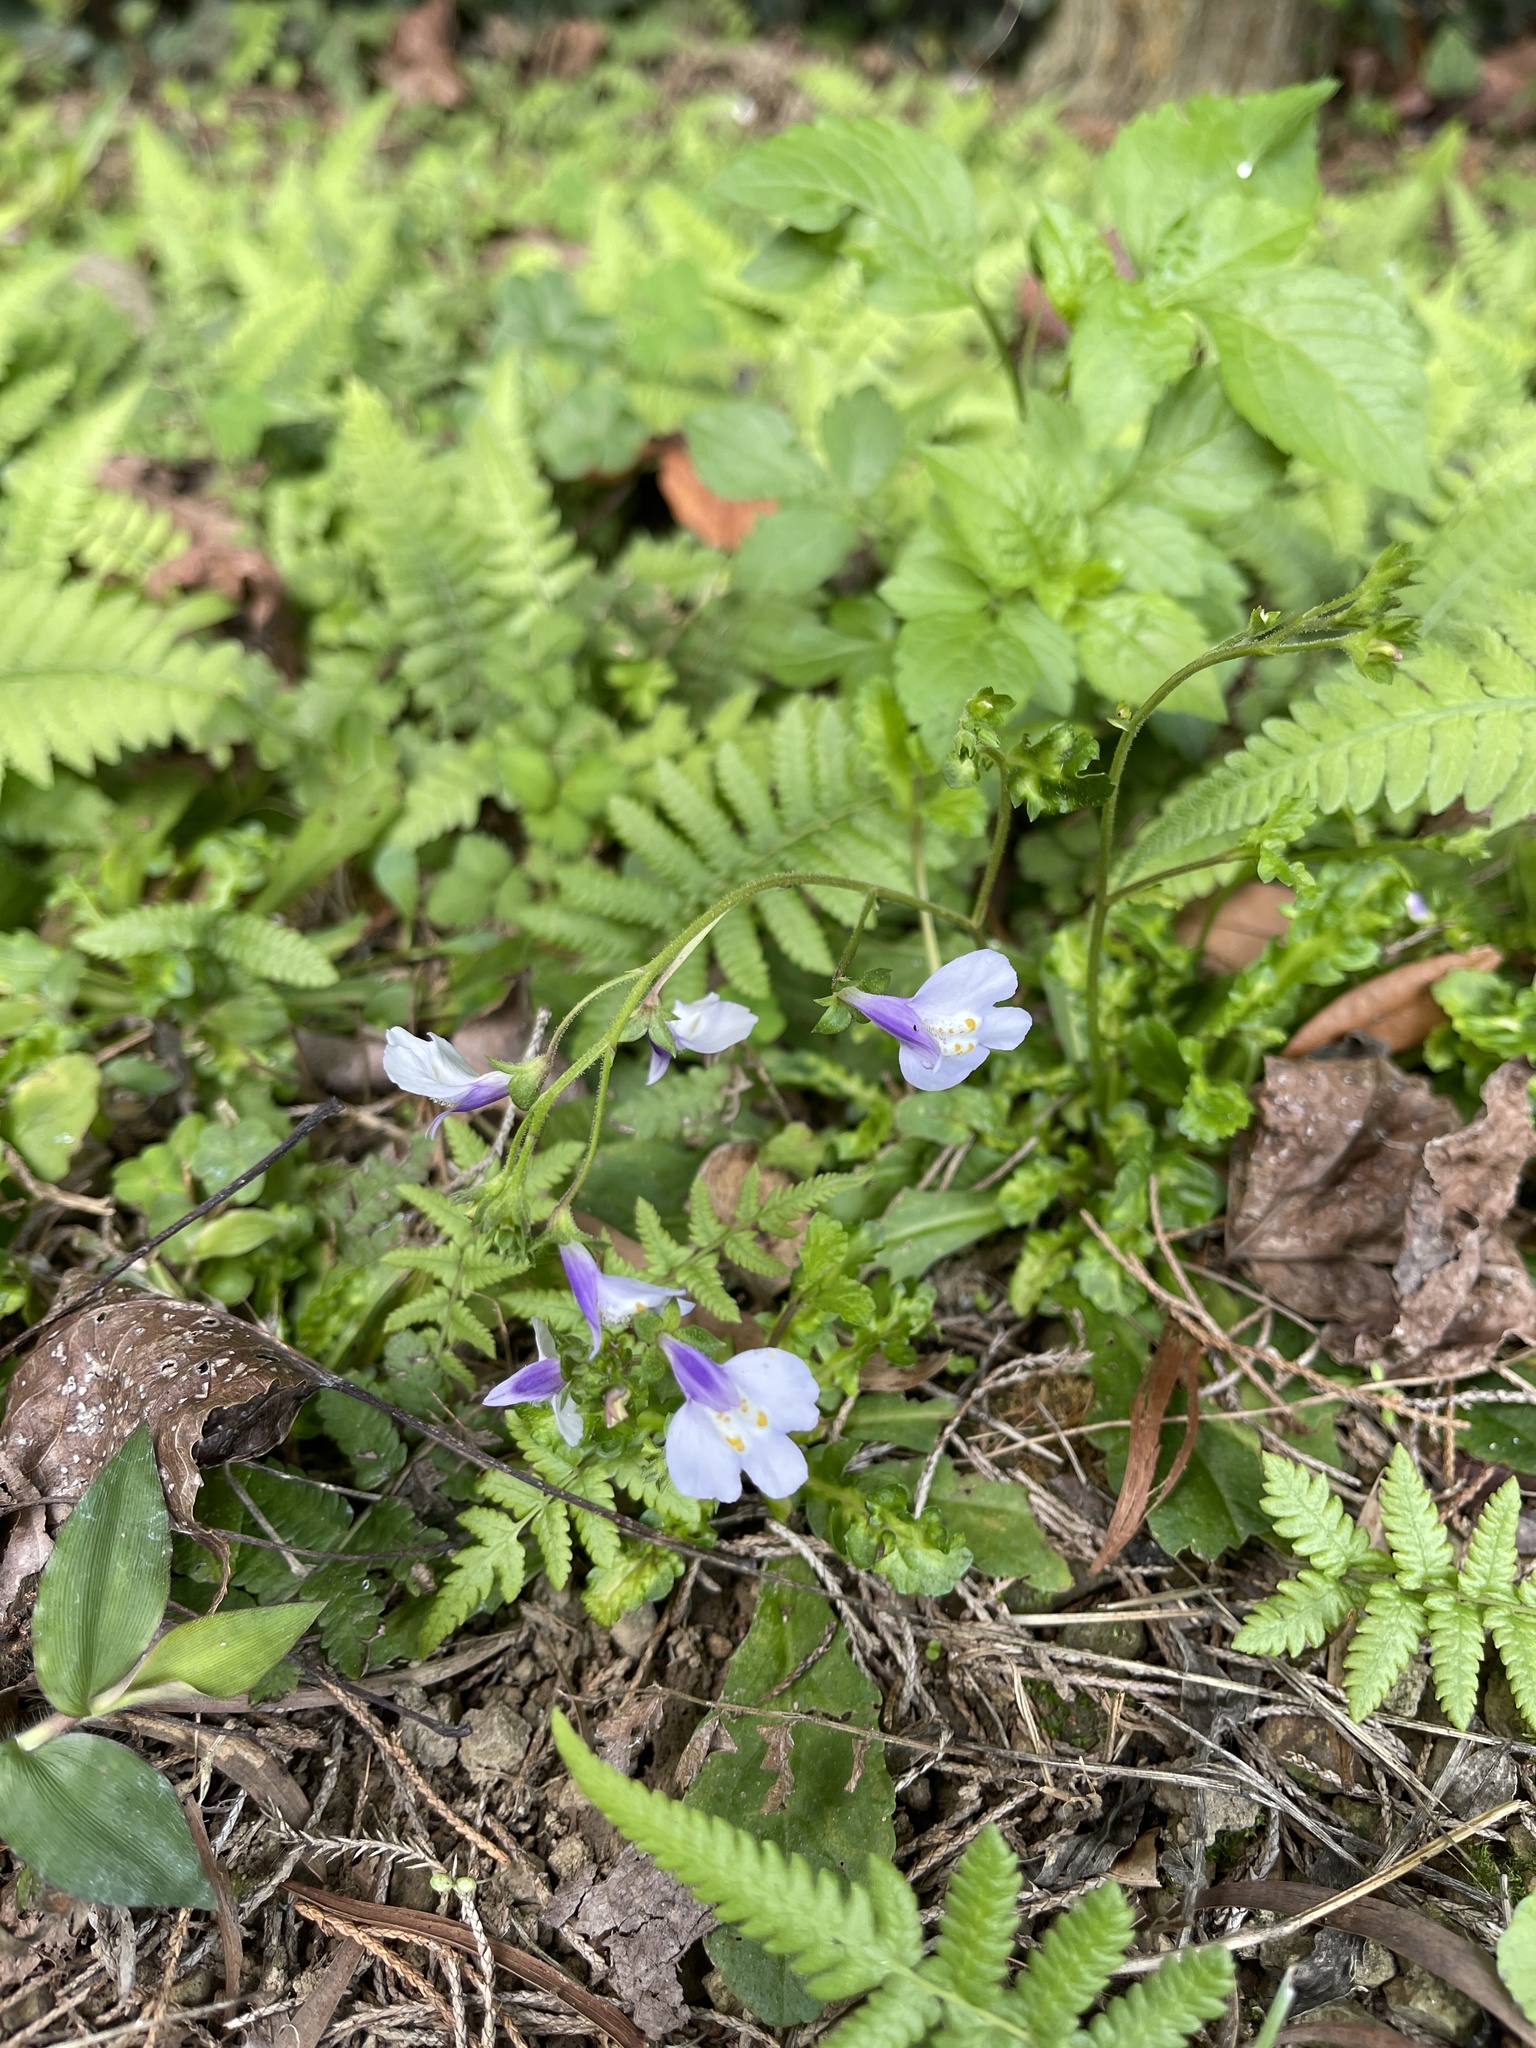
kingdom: Plantae
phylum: Tracheophyta
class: Magnoliopsida
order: Lamiales
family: Mazaceae
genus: Mazus
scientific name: Mazus fauriei
